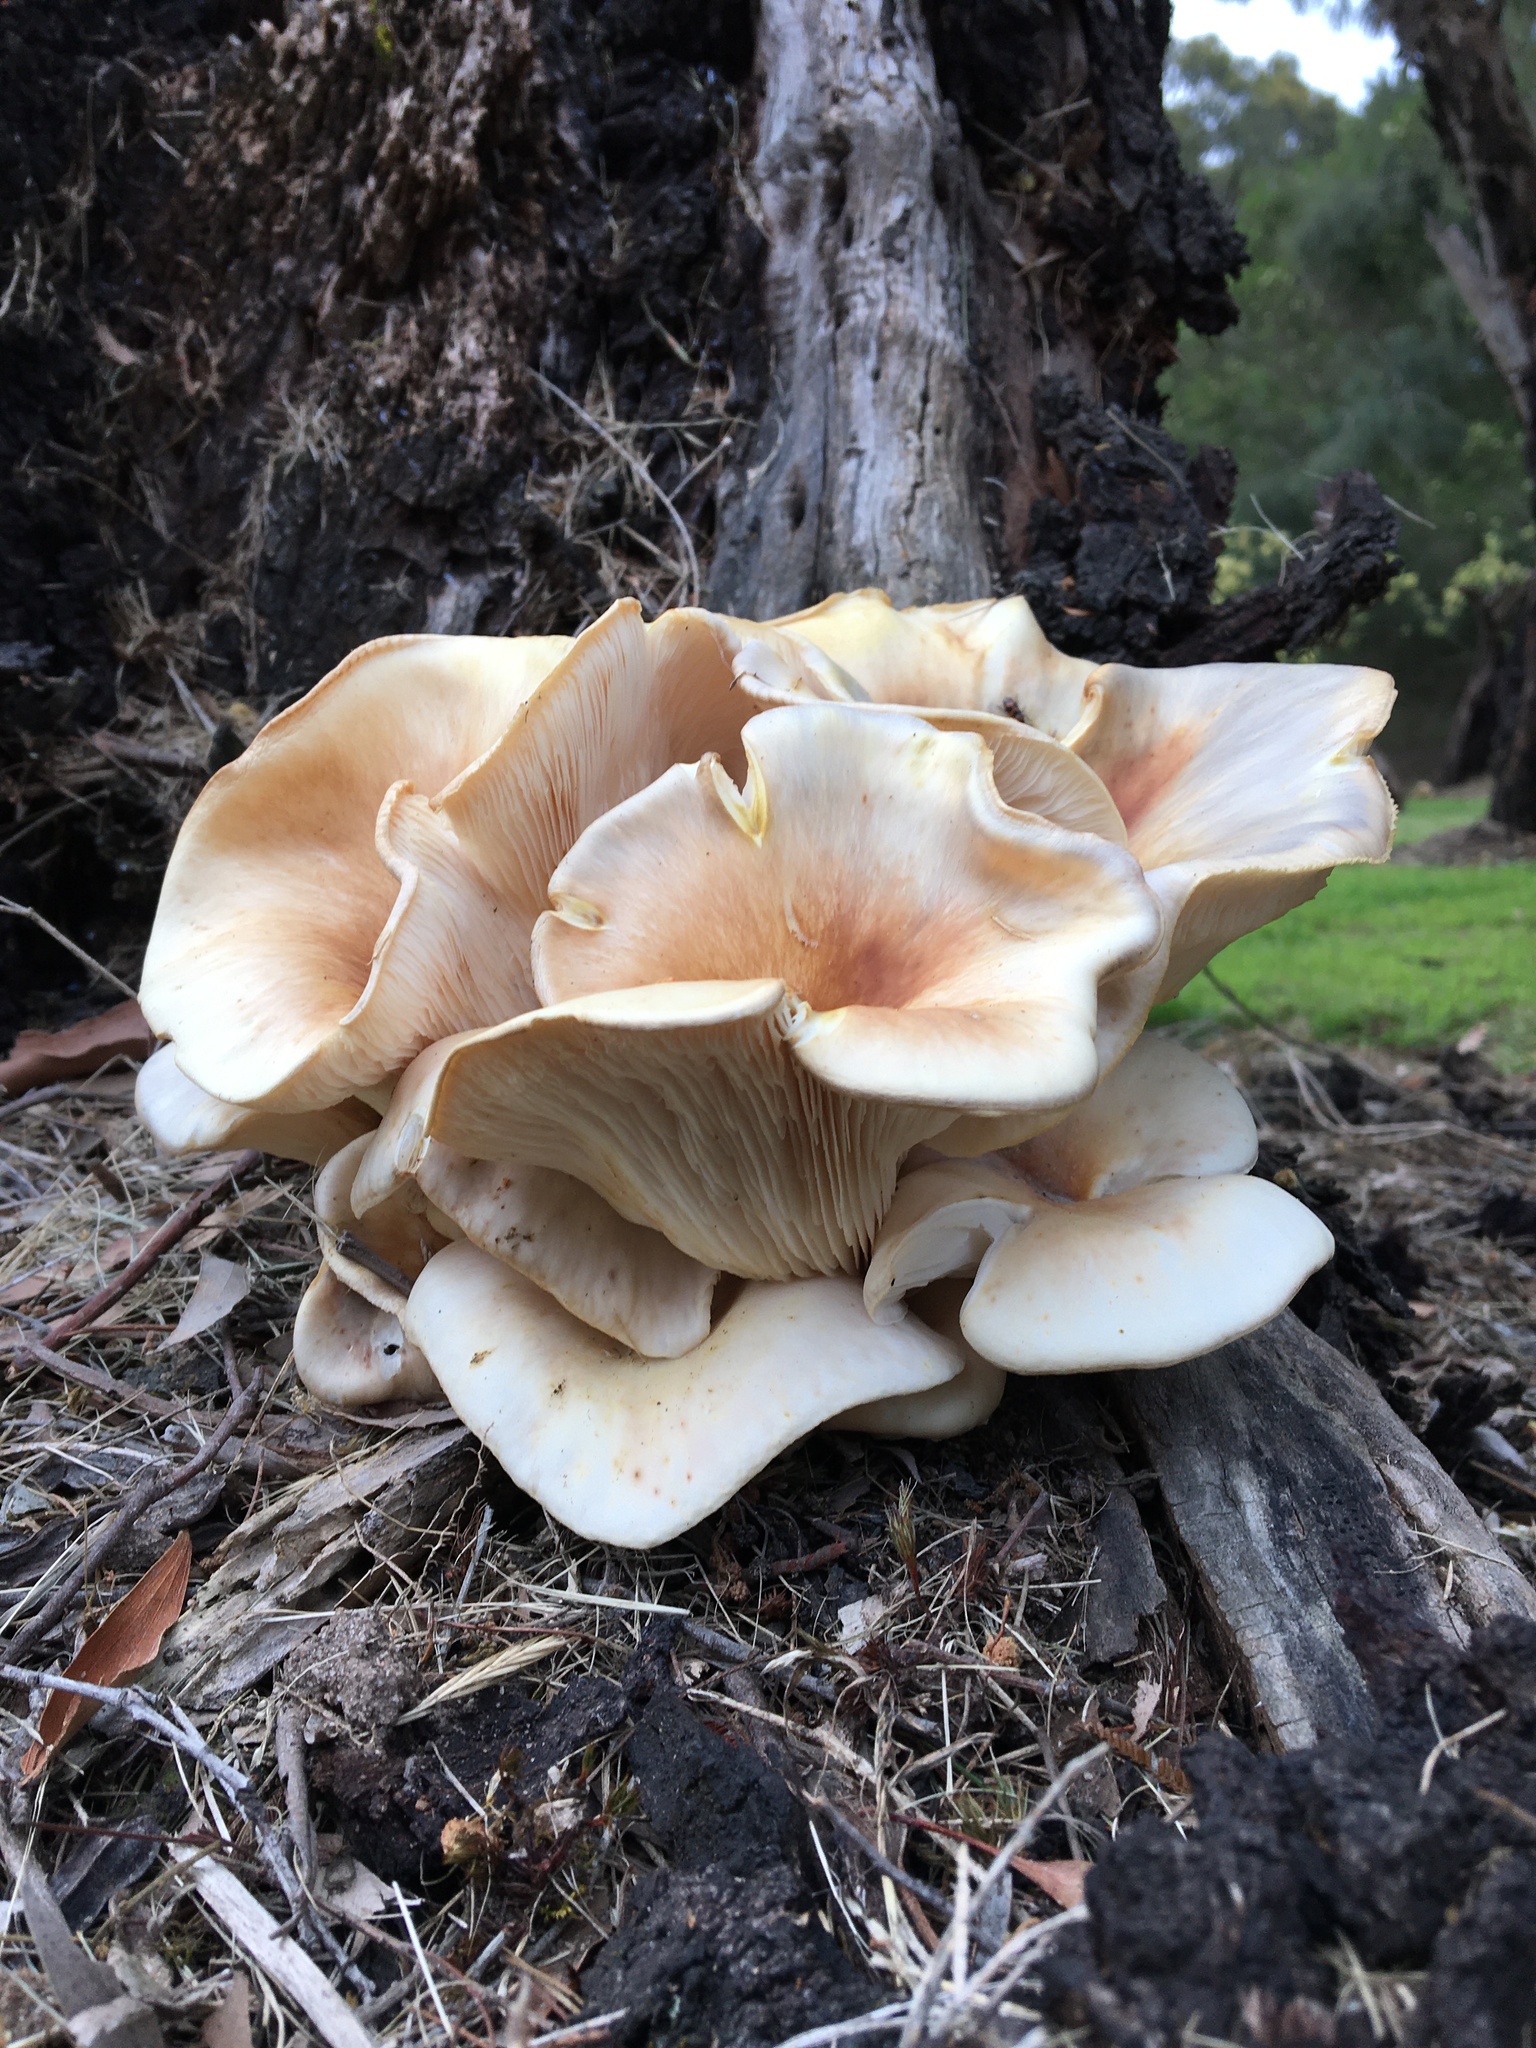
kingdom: Fungi
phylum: Basidiomycota
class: Agaricomycetes
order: Agaricales
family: Omphalotaceae
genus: Omphalotus
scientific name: Omphalotus nidiformis
